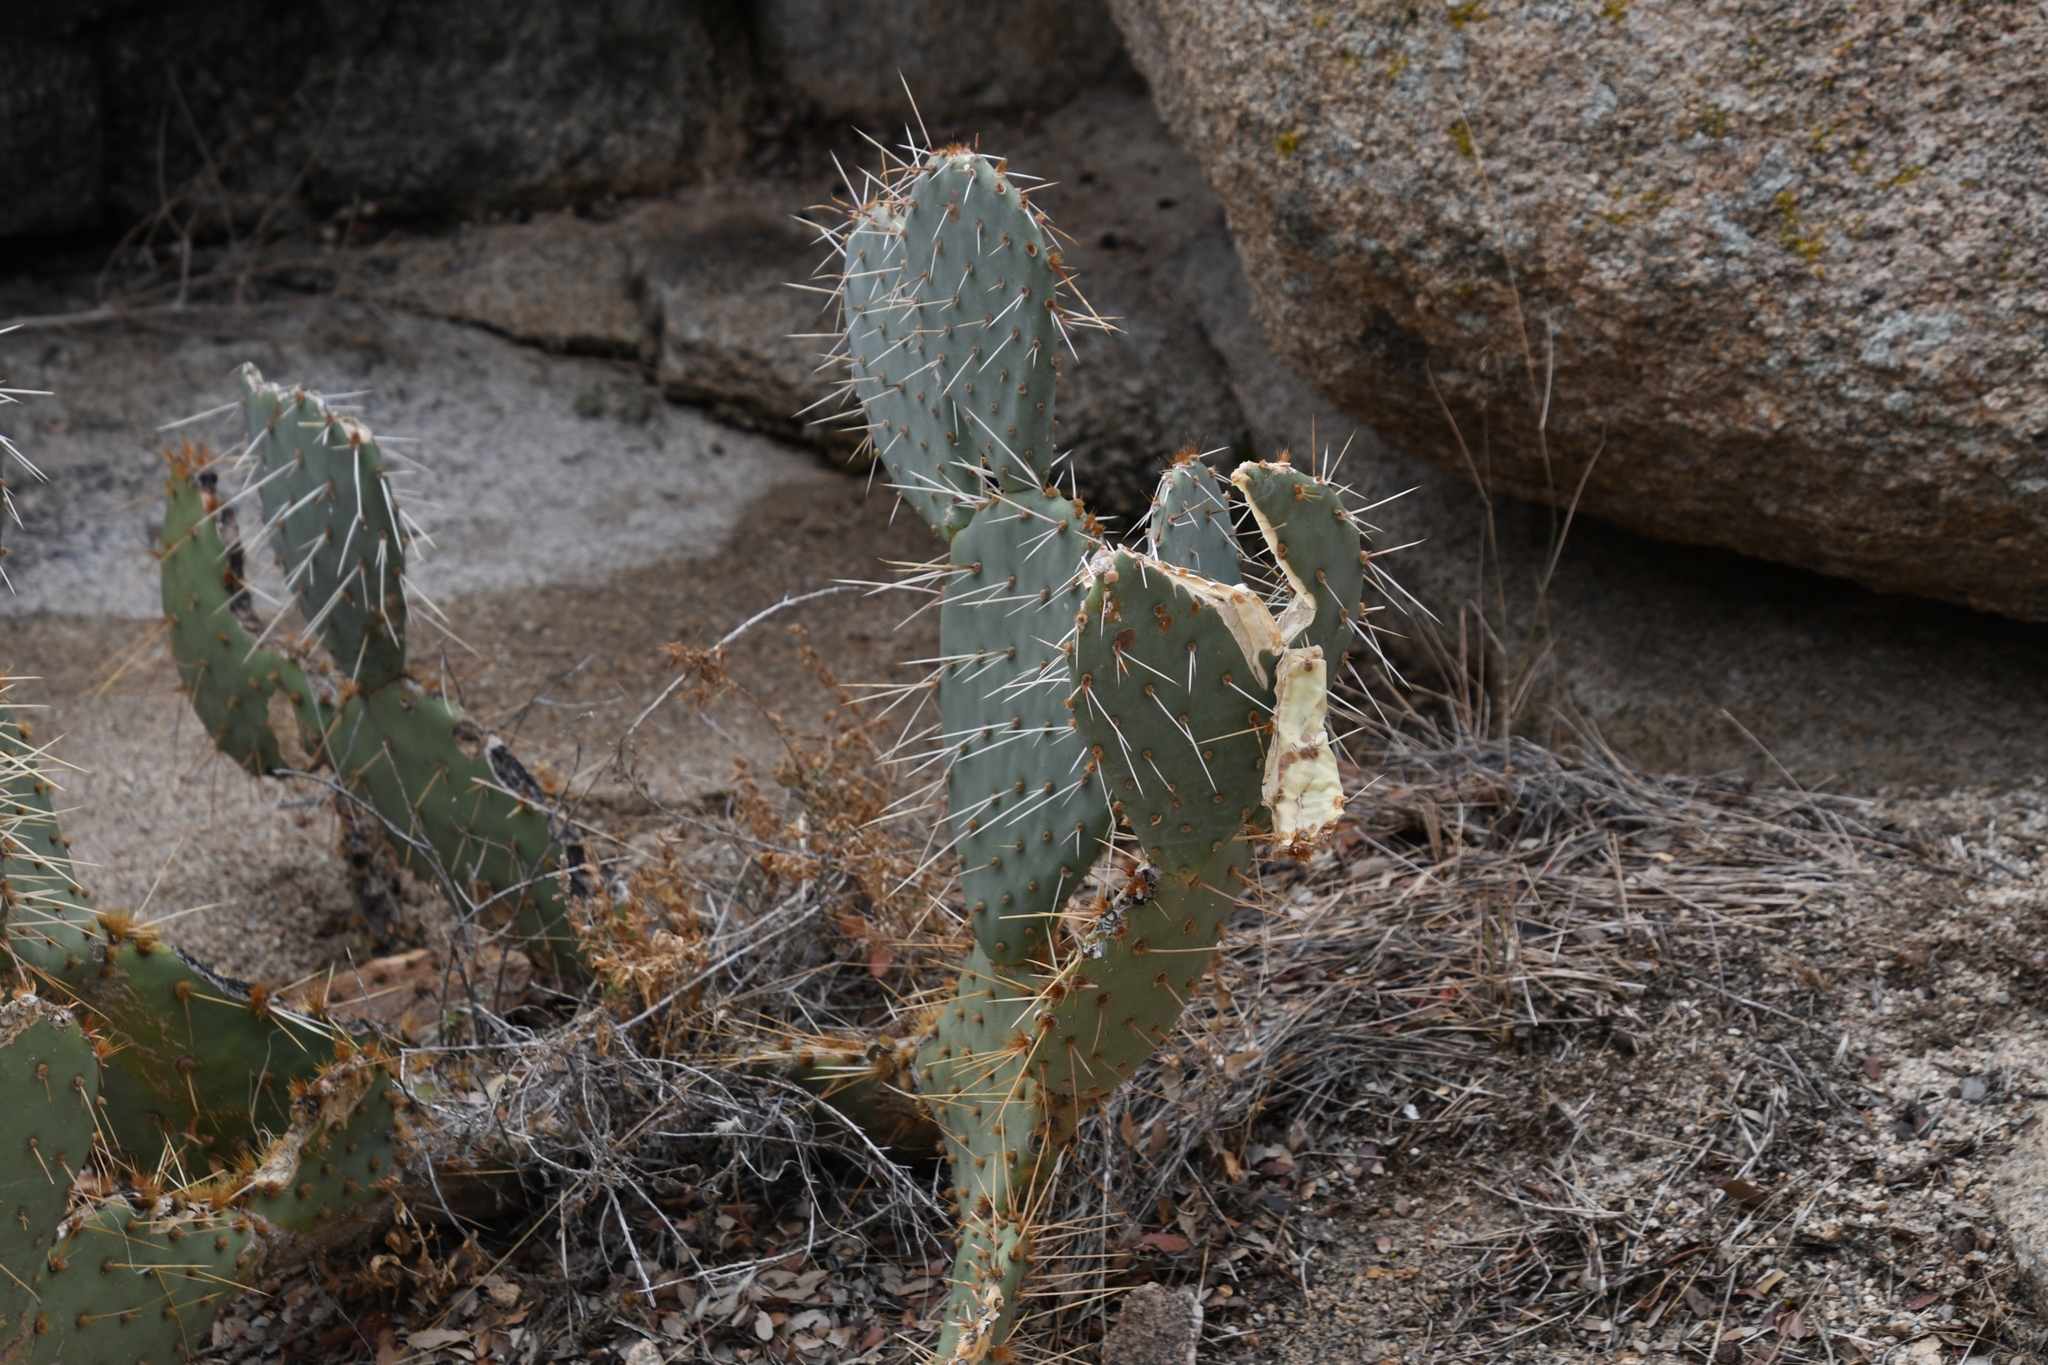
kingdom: Plantae
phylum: Tracheophyta
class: Magnoliopsida
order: Caryophyllales
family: Cactaceae
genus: Opuntia
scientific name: Opuntia phaeacantha
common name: New mexico prickly-pear
